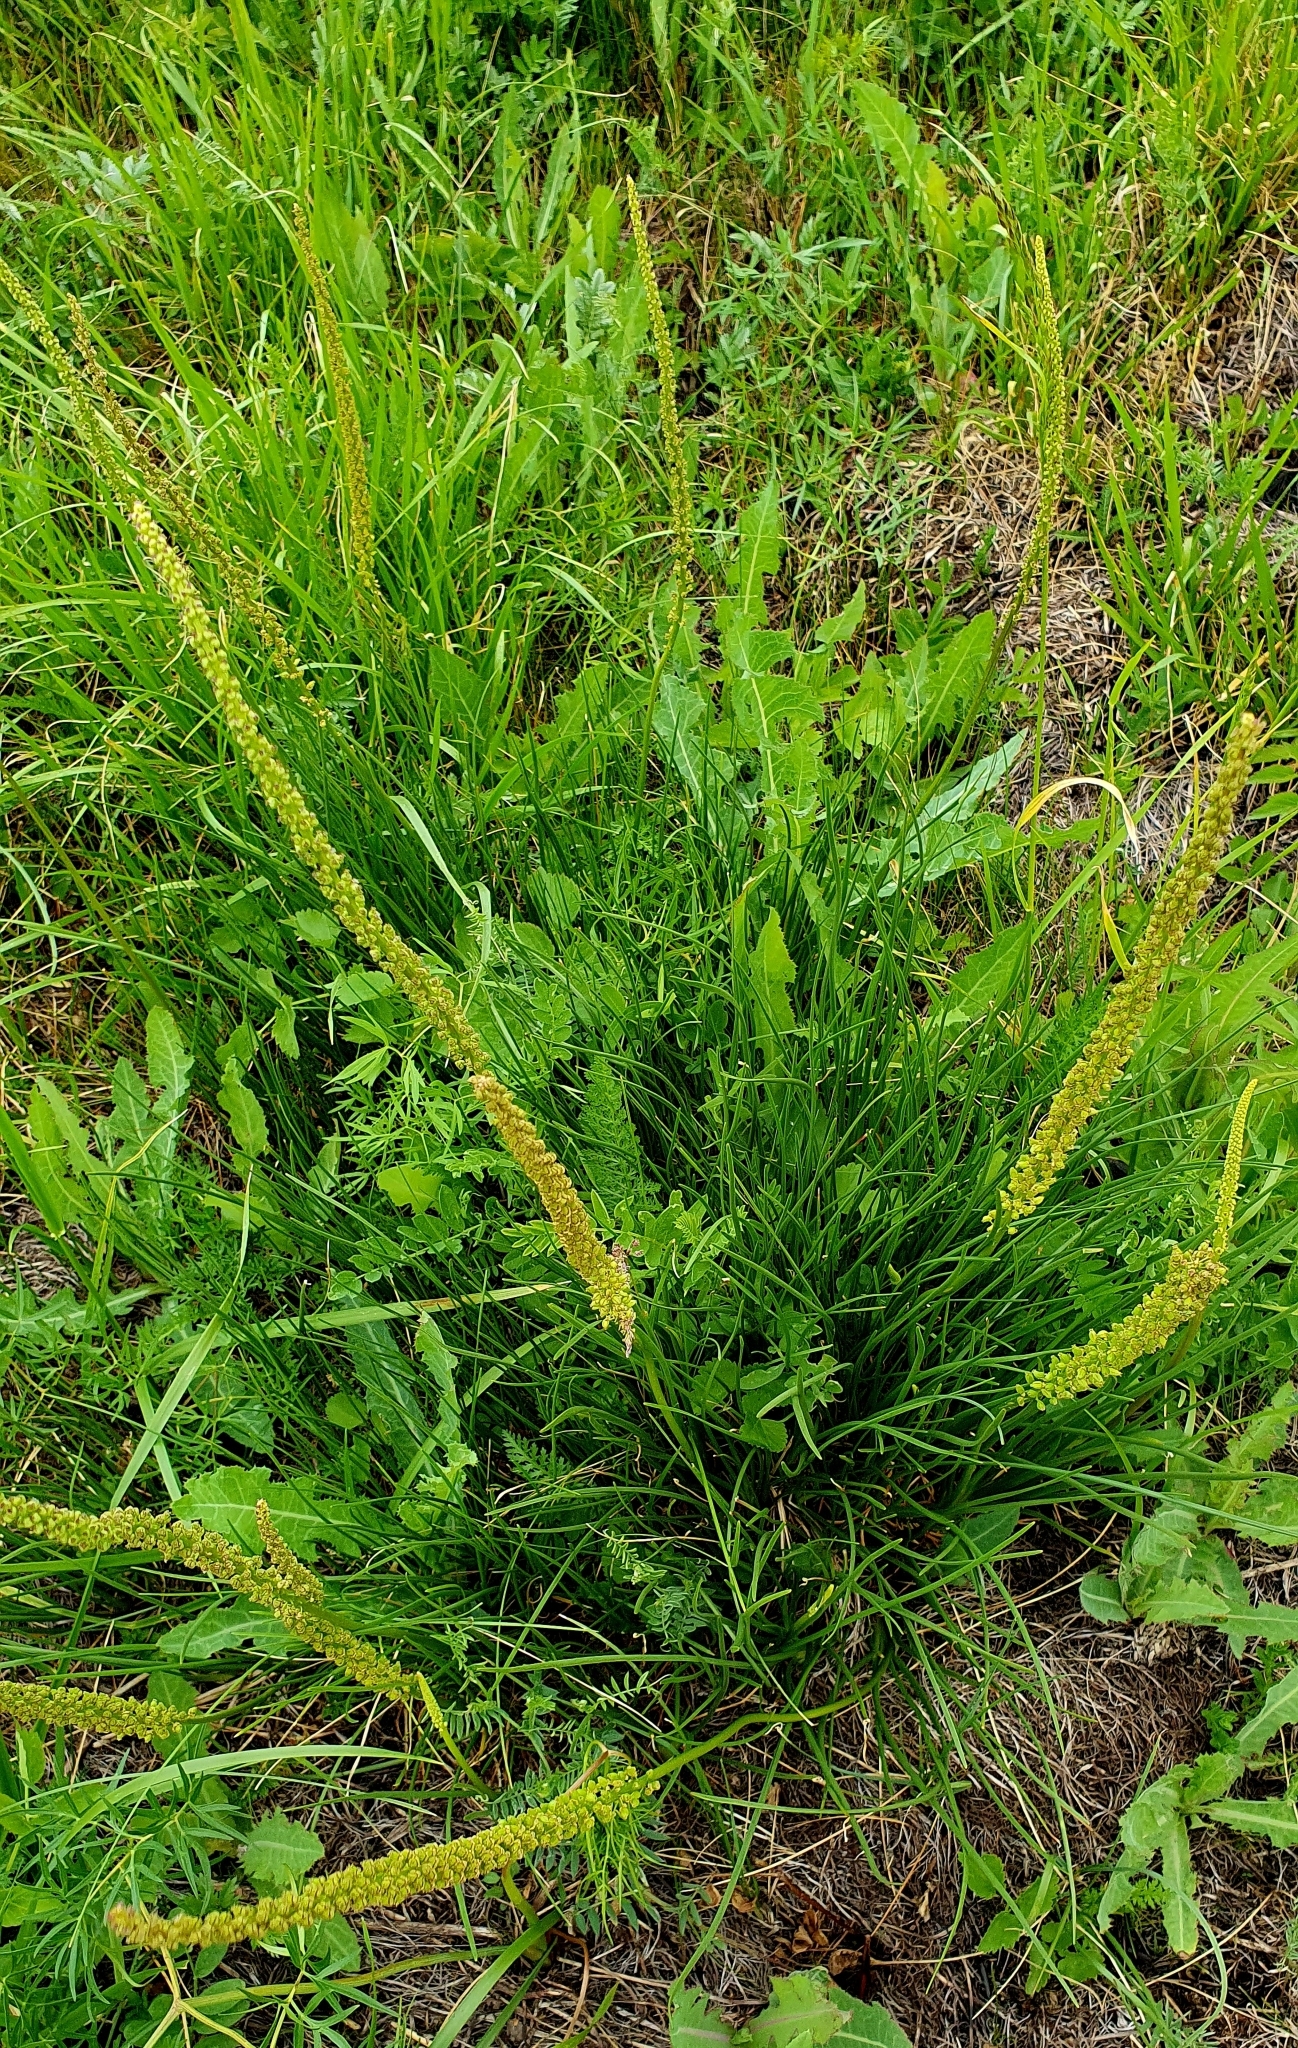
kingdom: Plantae
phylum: Tracheophyta
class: Liliopsida
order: Alismatales
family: Juncaginaceae
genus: Triglochin
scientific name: Triglochin maritima
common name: Sea arrowgrass
